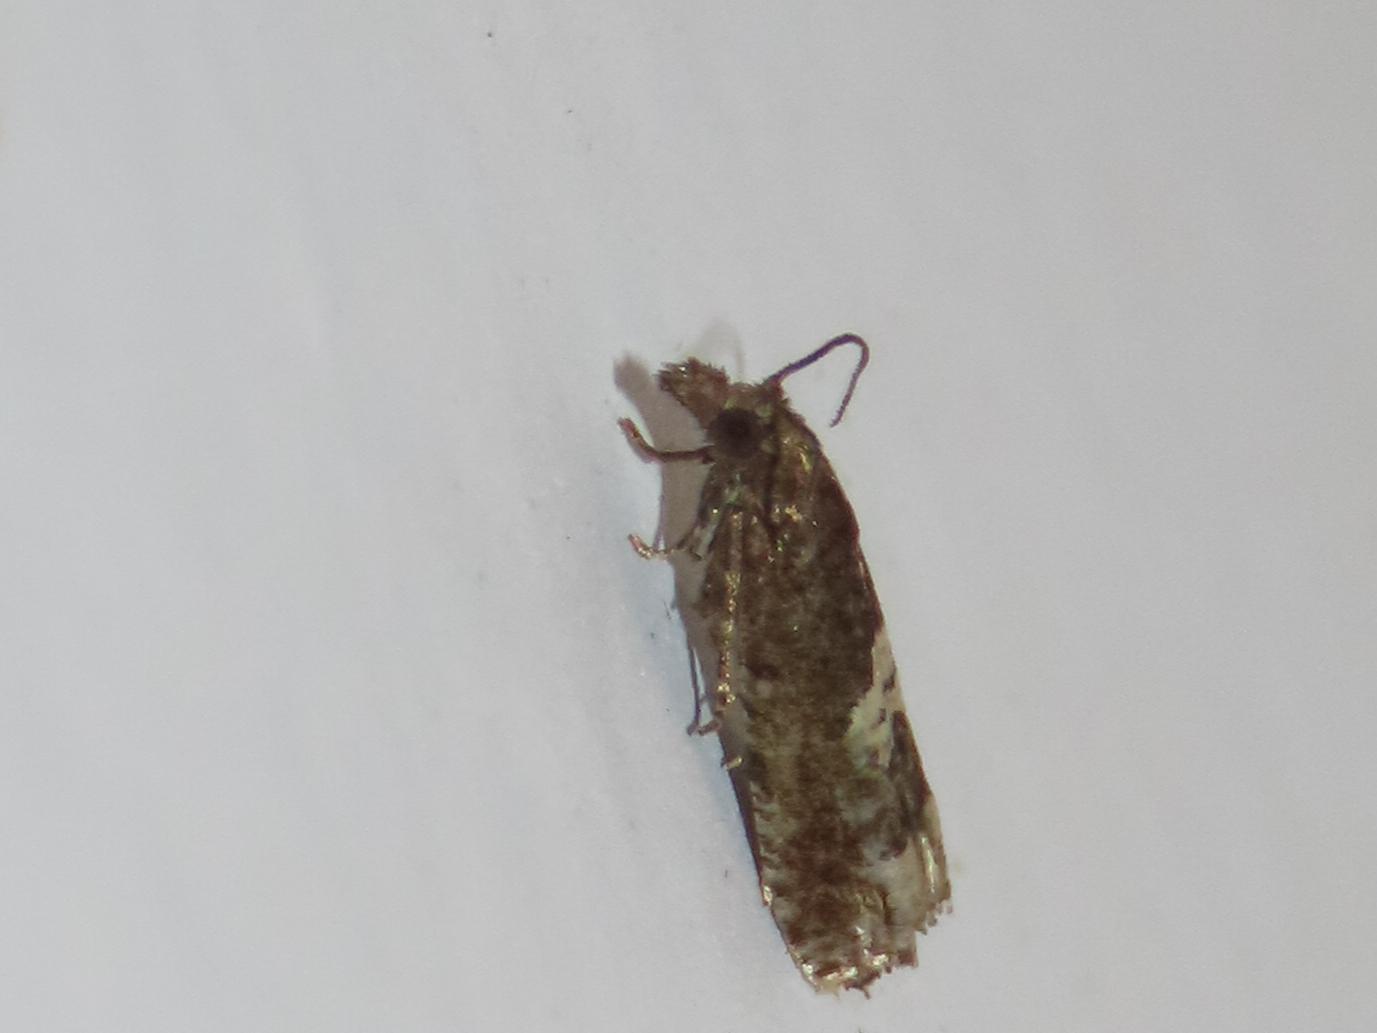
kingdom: Animalia
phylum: Arthropoda
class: Insecta
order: Lepidoptera
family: Tortricidae
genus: Eucosma
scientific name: Eucosma parmatana
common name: Aster eucosma moth
